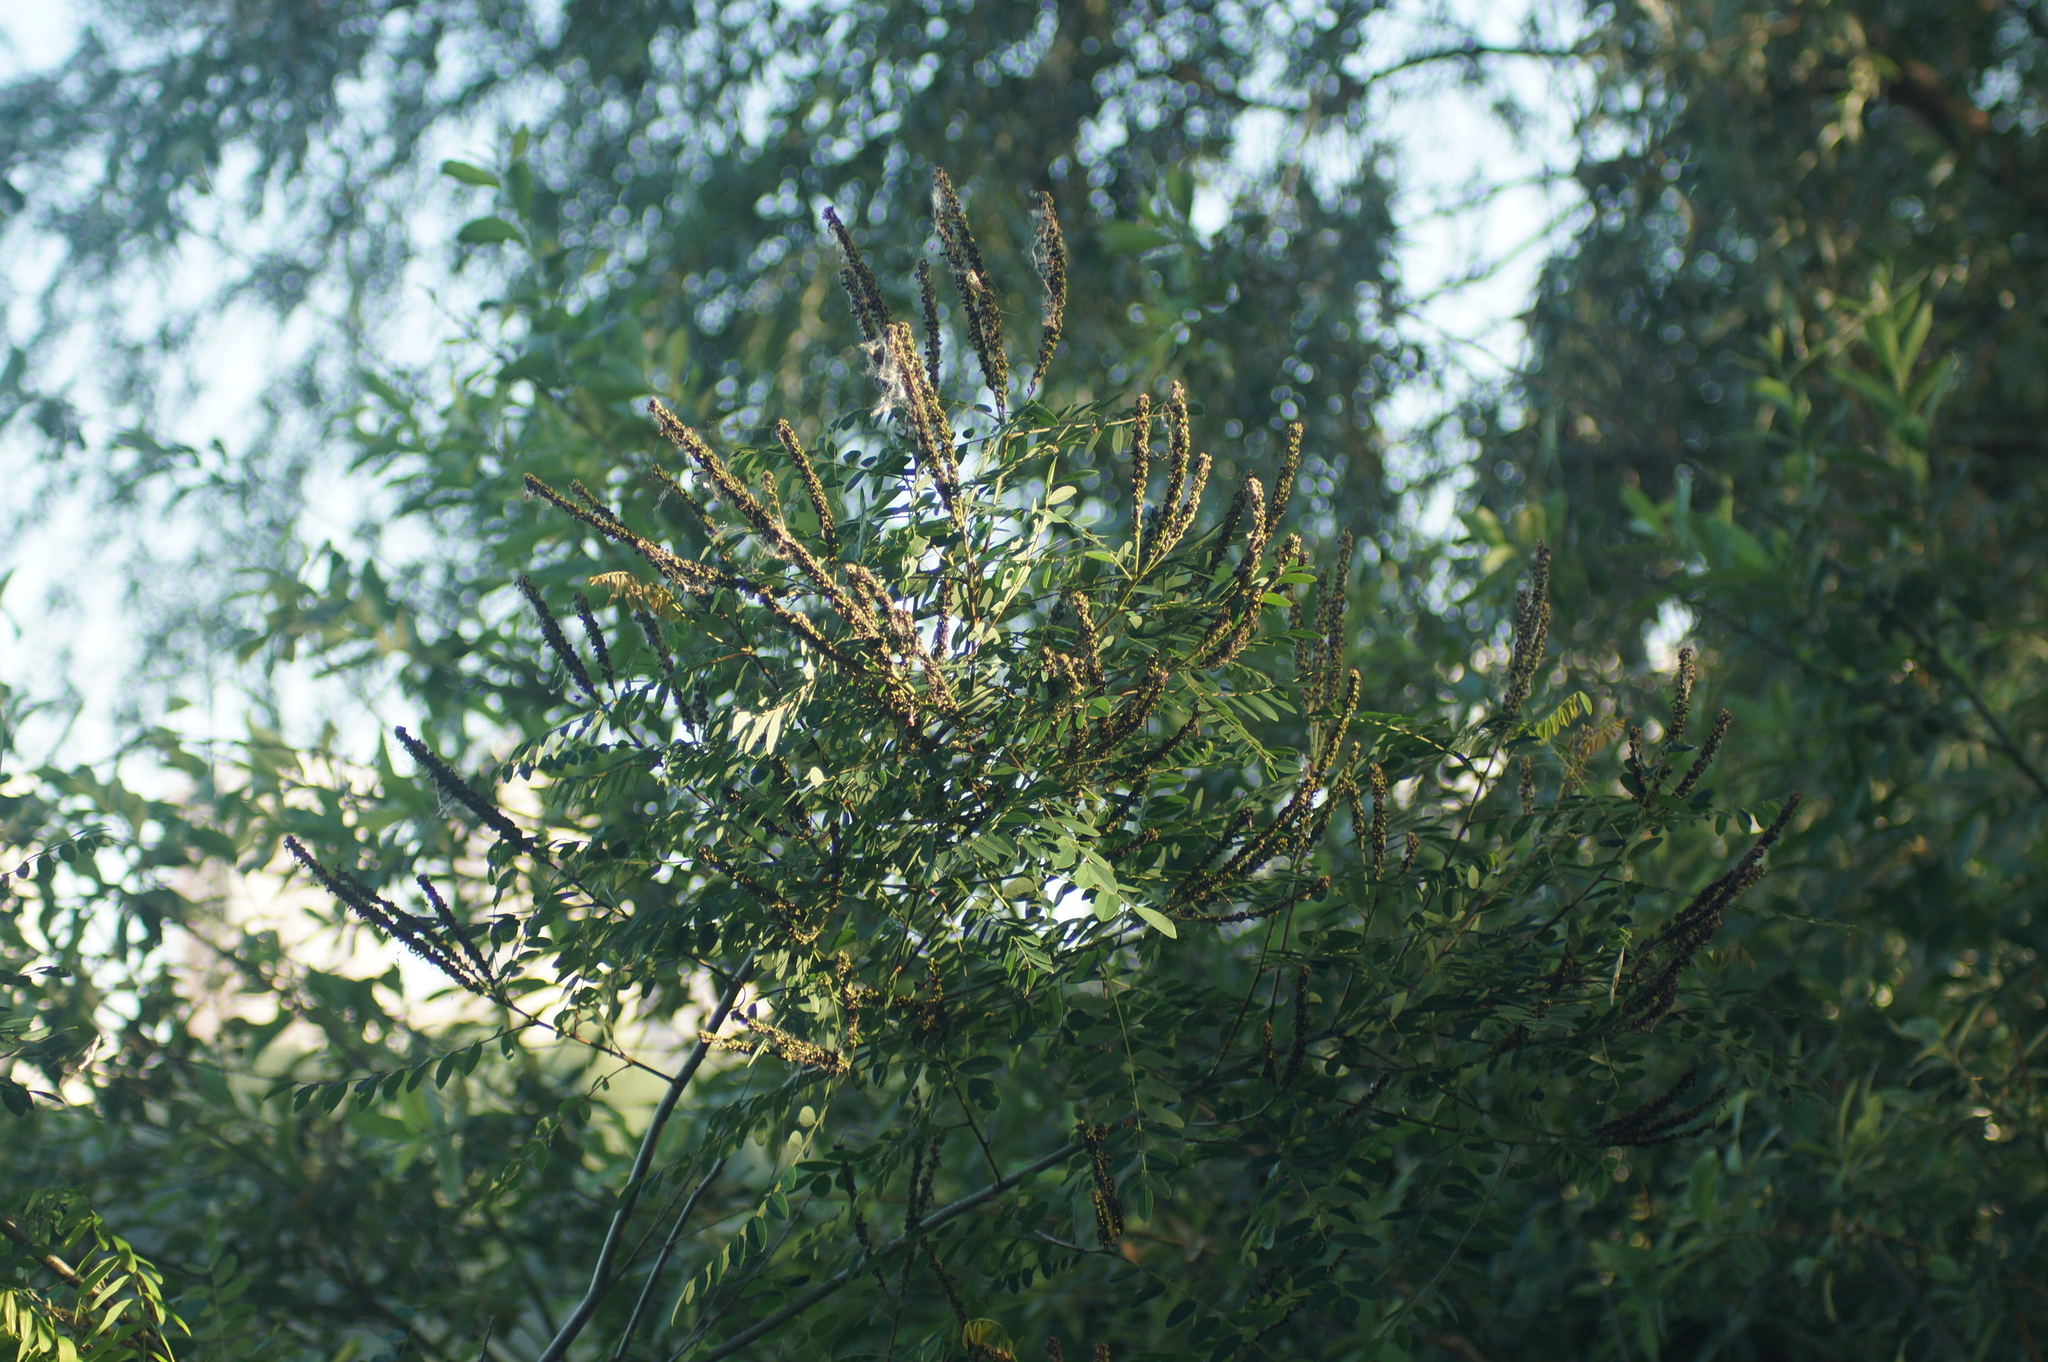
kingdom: Plantae
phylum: Tracheophyta
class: Magnoliopsida
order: Fabales
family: Fabaceae
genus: Amorpha
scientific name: Amorpha fruticosa
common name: False indigo
